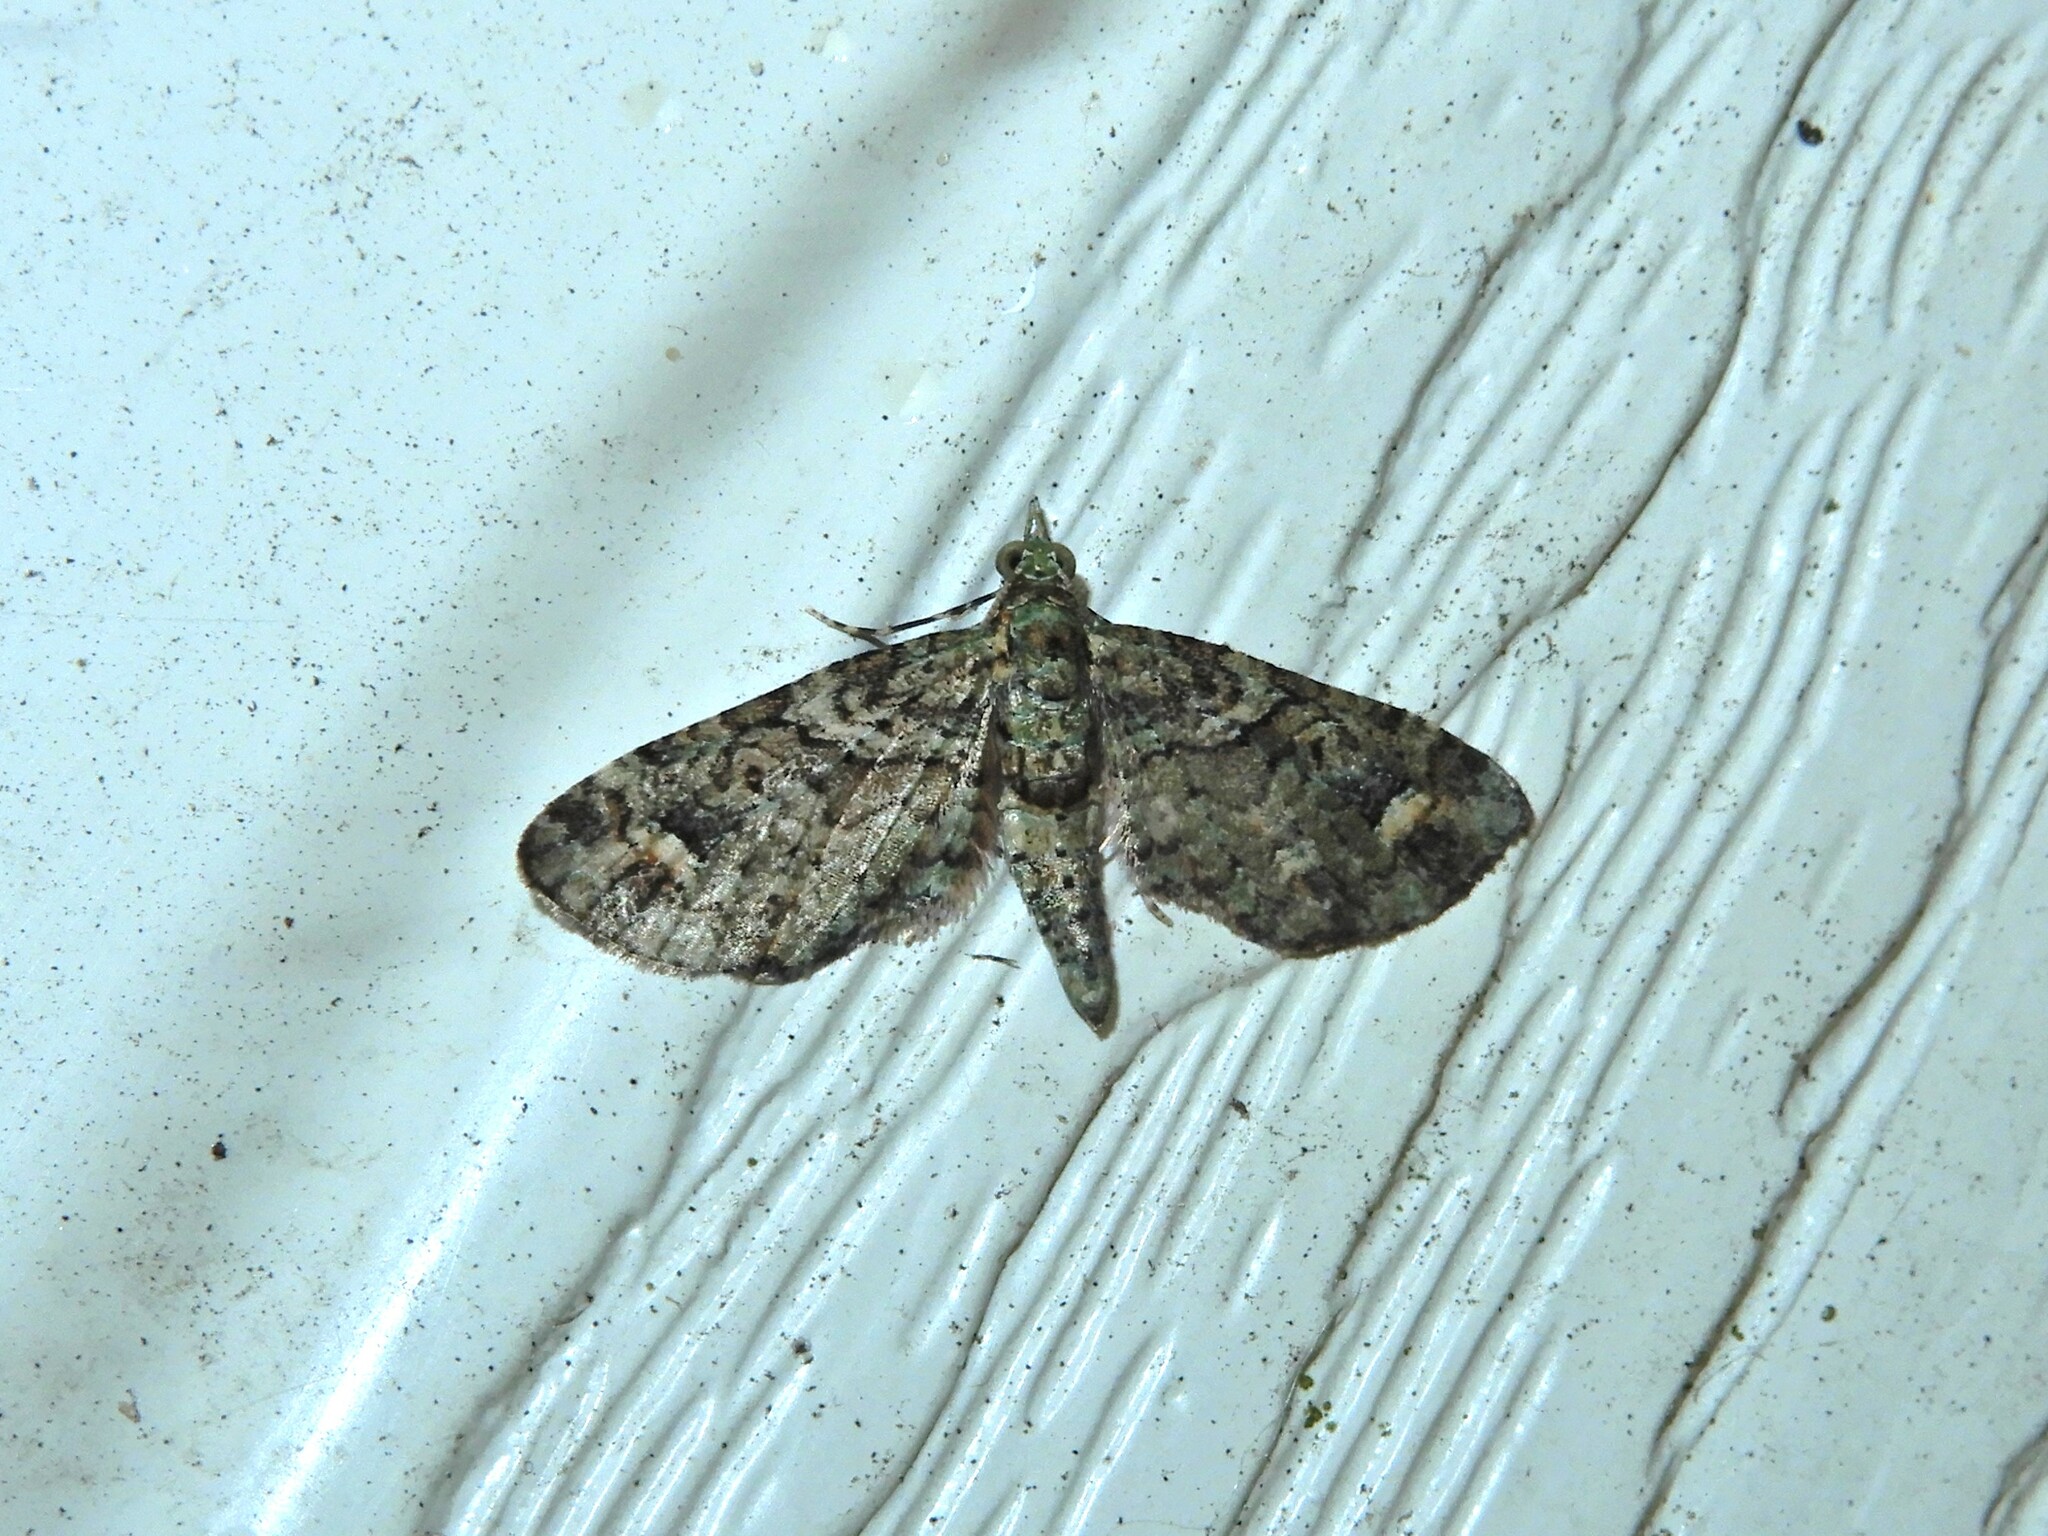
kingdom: Animalia
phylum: Arthropoda
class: Insecta
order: Lepidoptera
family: Geometridae
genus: Idaea
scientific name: Idaea mutanda
